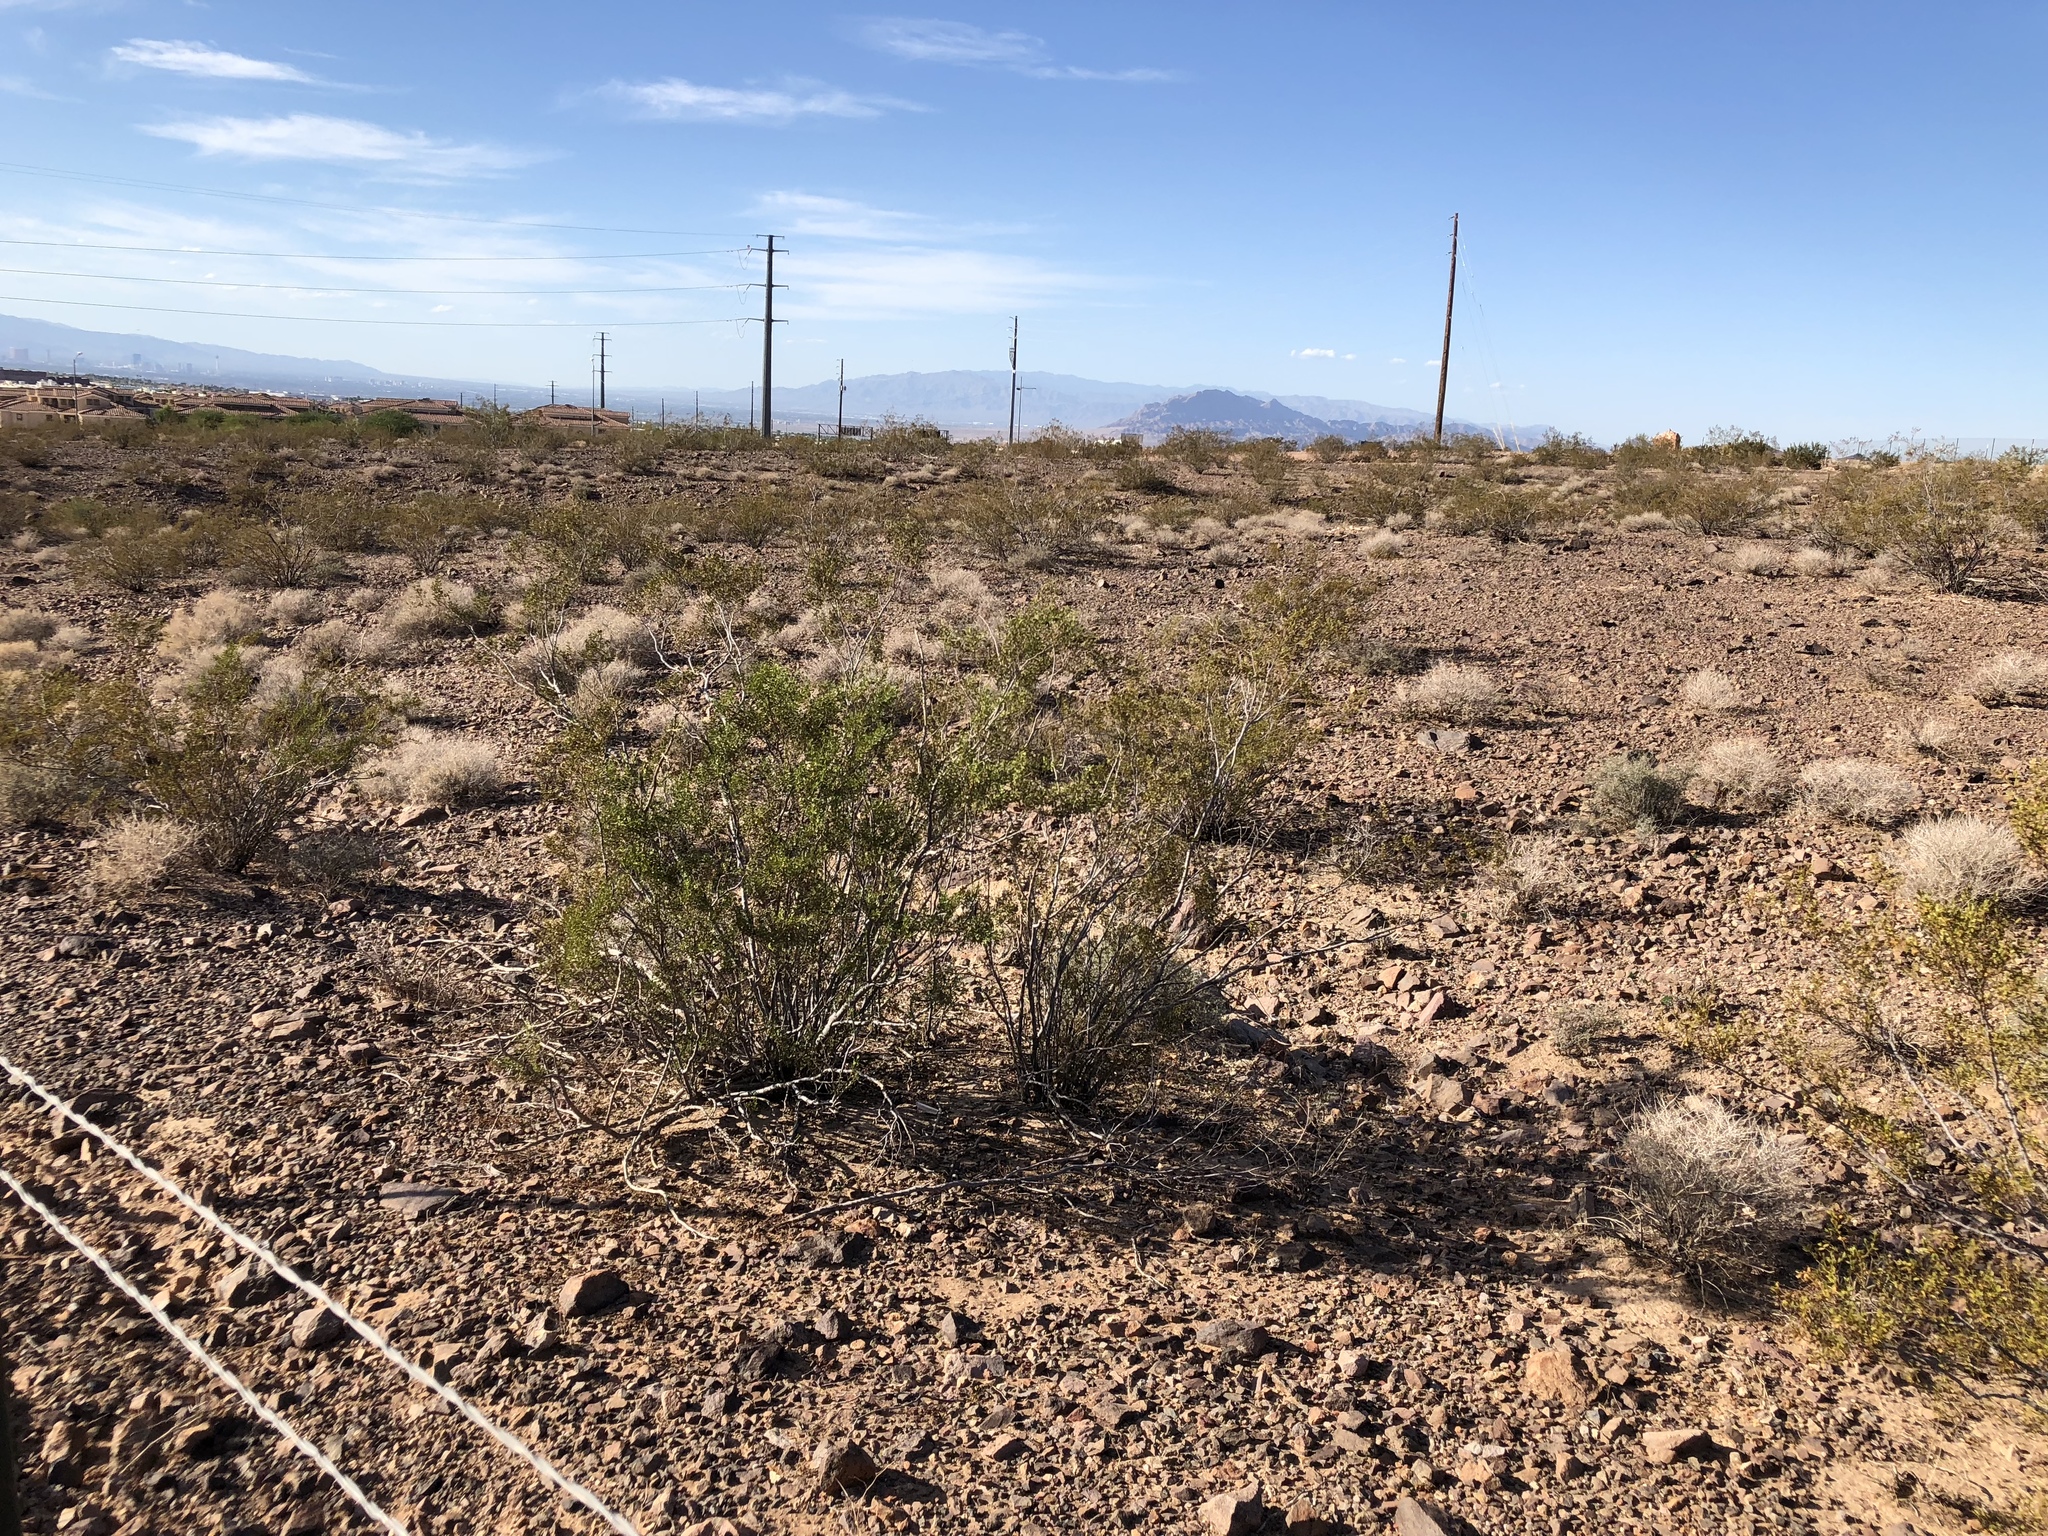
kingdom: Plantae
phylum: Tracheophyta
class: Magnoliopsida
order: Zygophyllales
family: Zygophyllaceae
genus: Larrea
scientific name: Larrea tridentata
